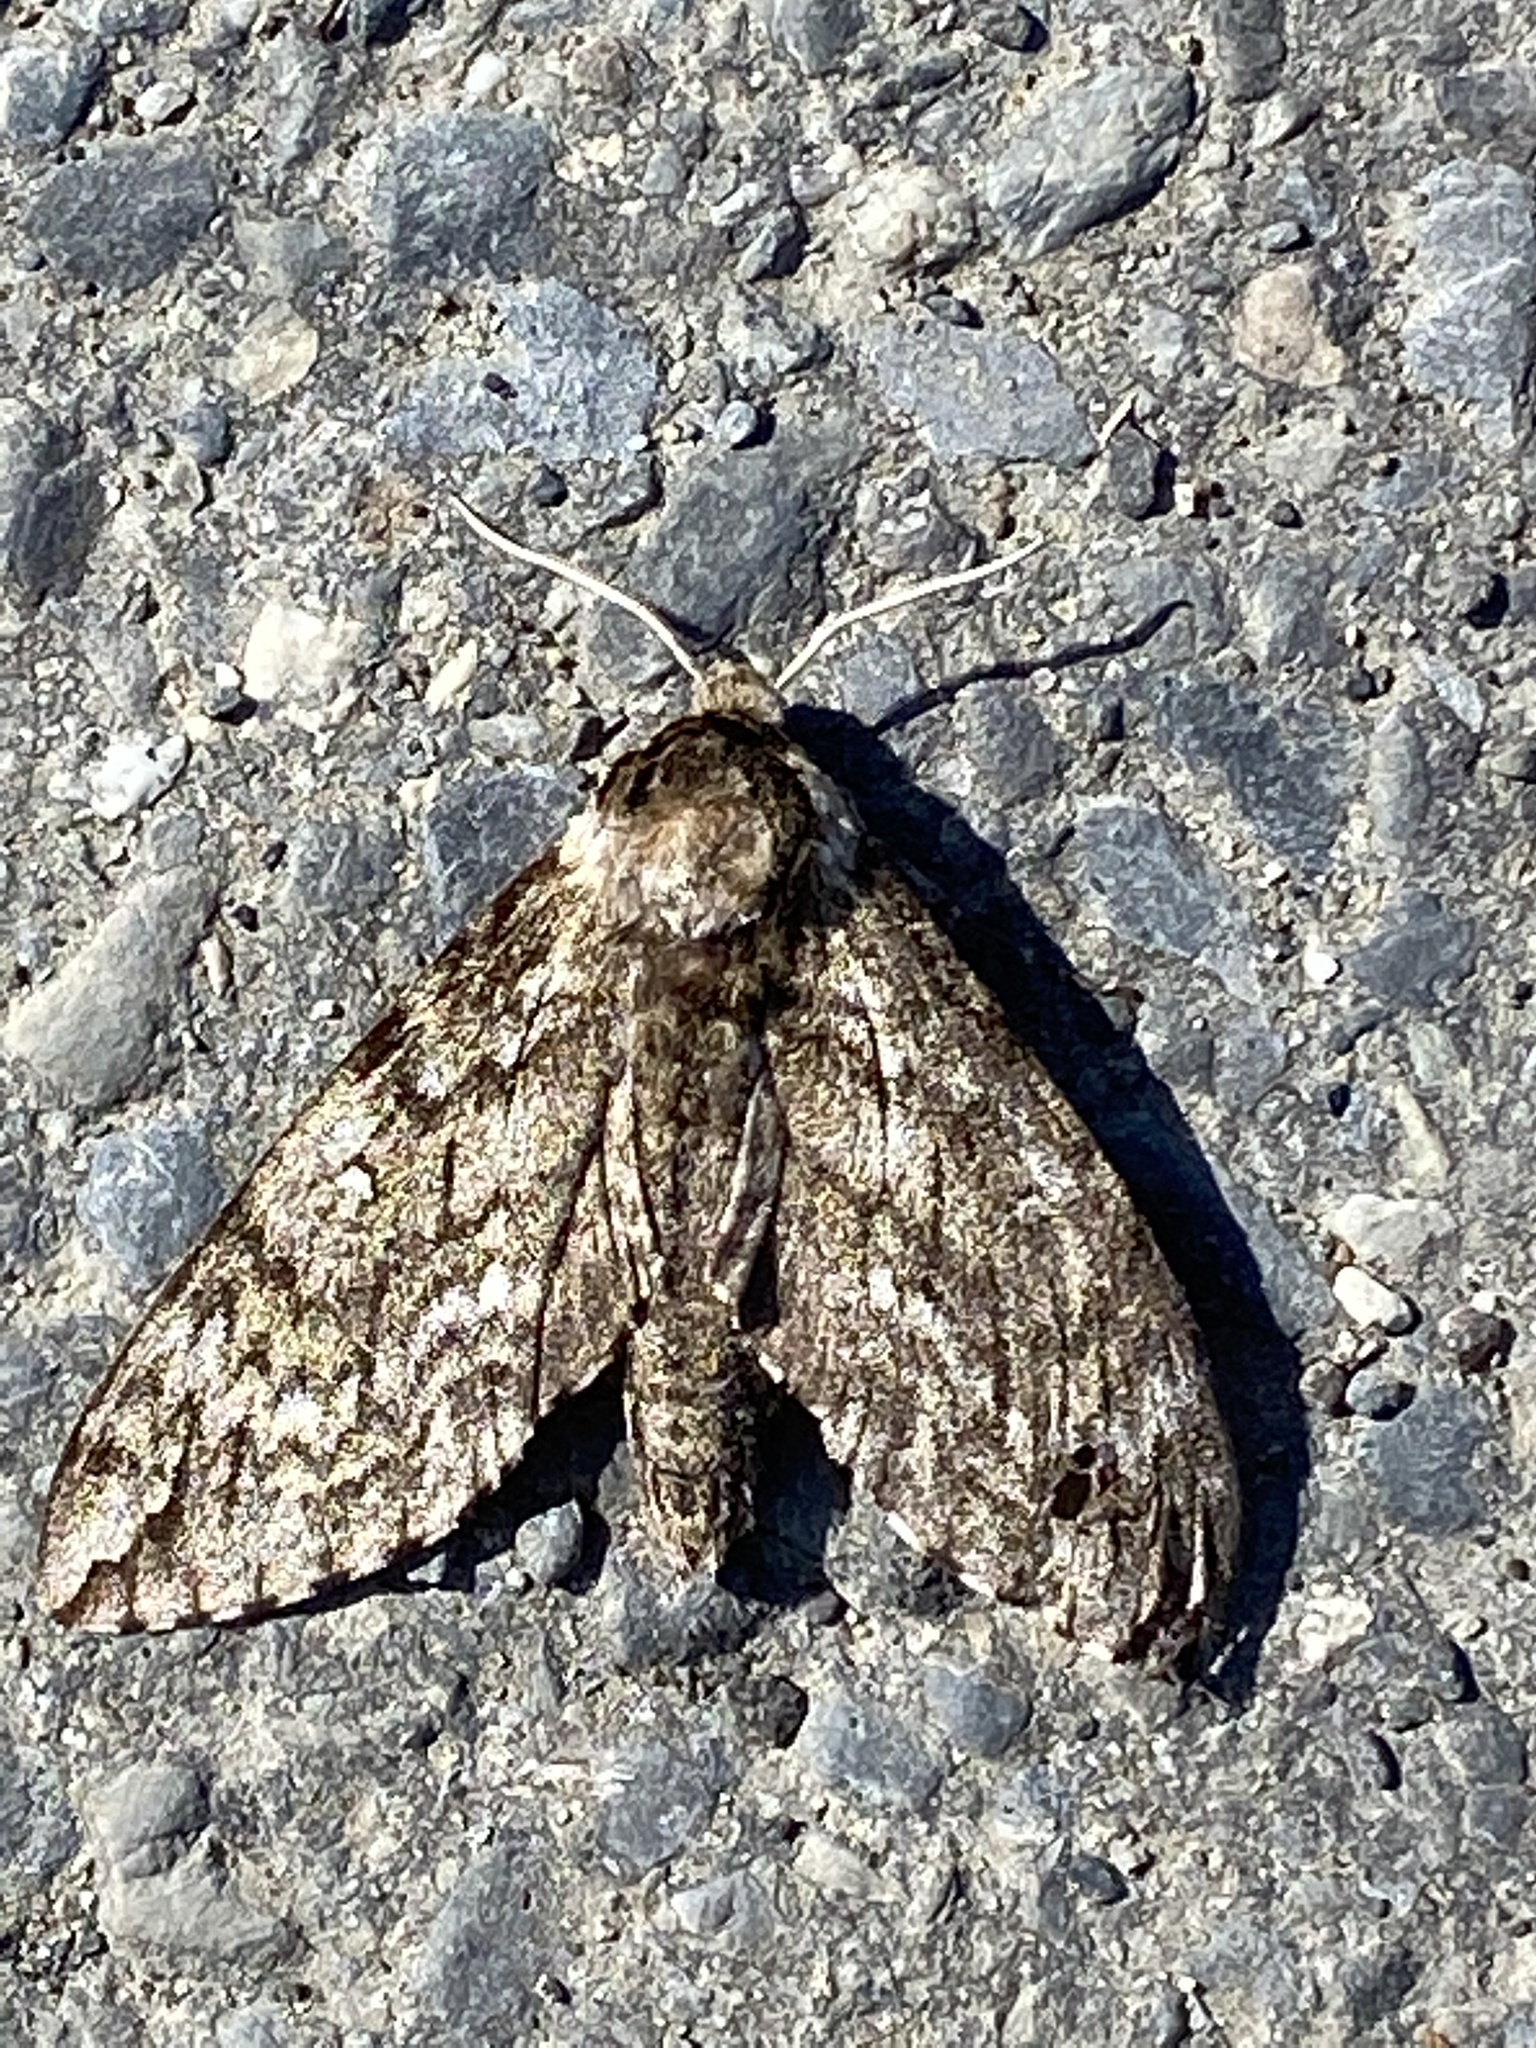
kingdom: Animalia
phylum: Arthropoda
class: Insecta
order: Lepidoptera
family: Sphingidae
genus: Ceratomia
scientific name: Ceratomia undulosa
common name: Waved sphinx
